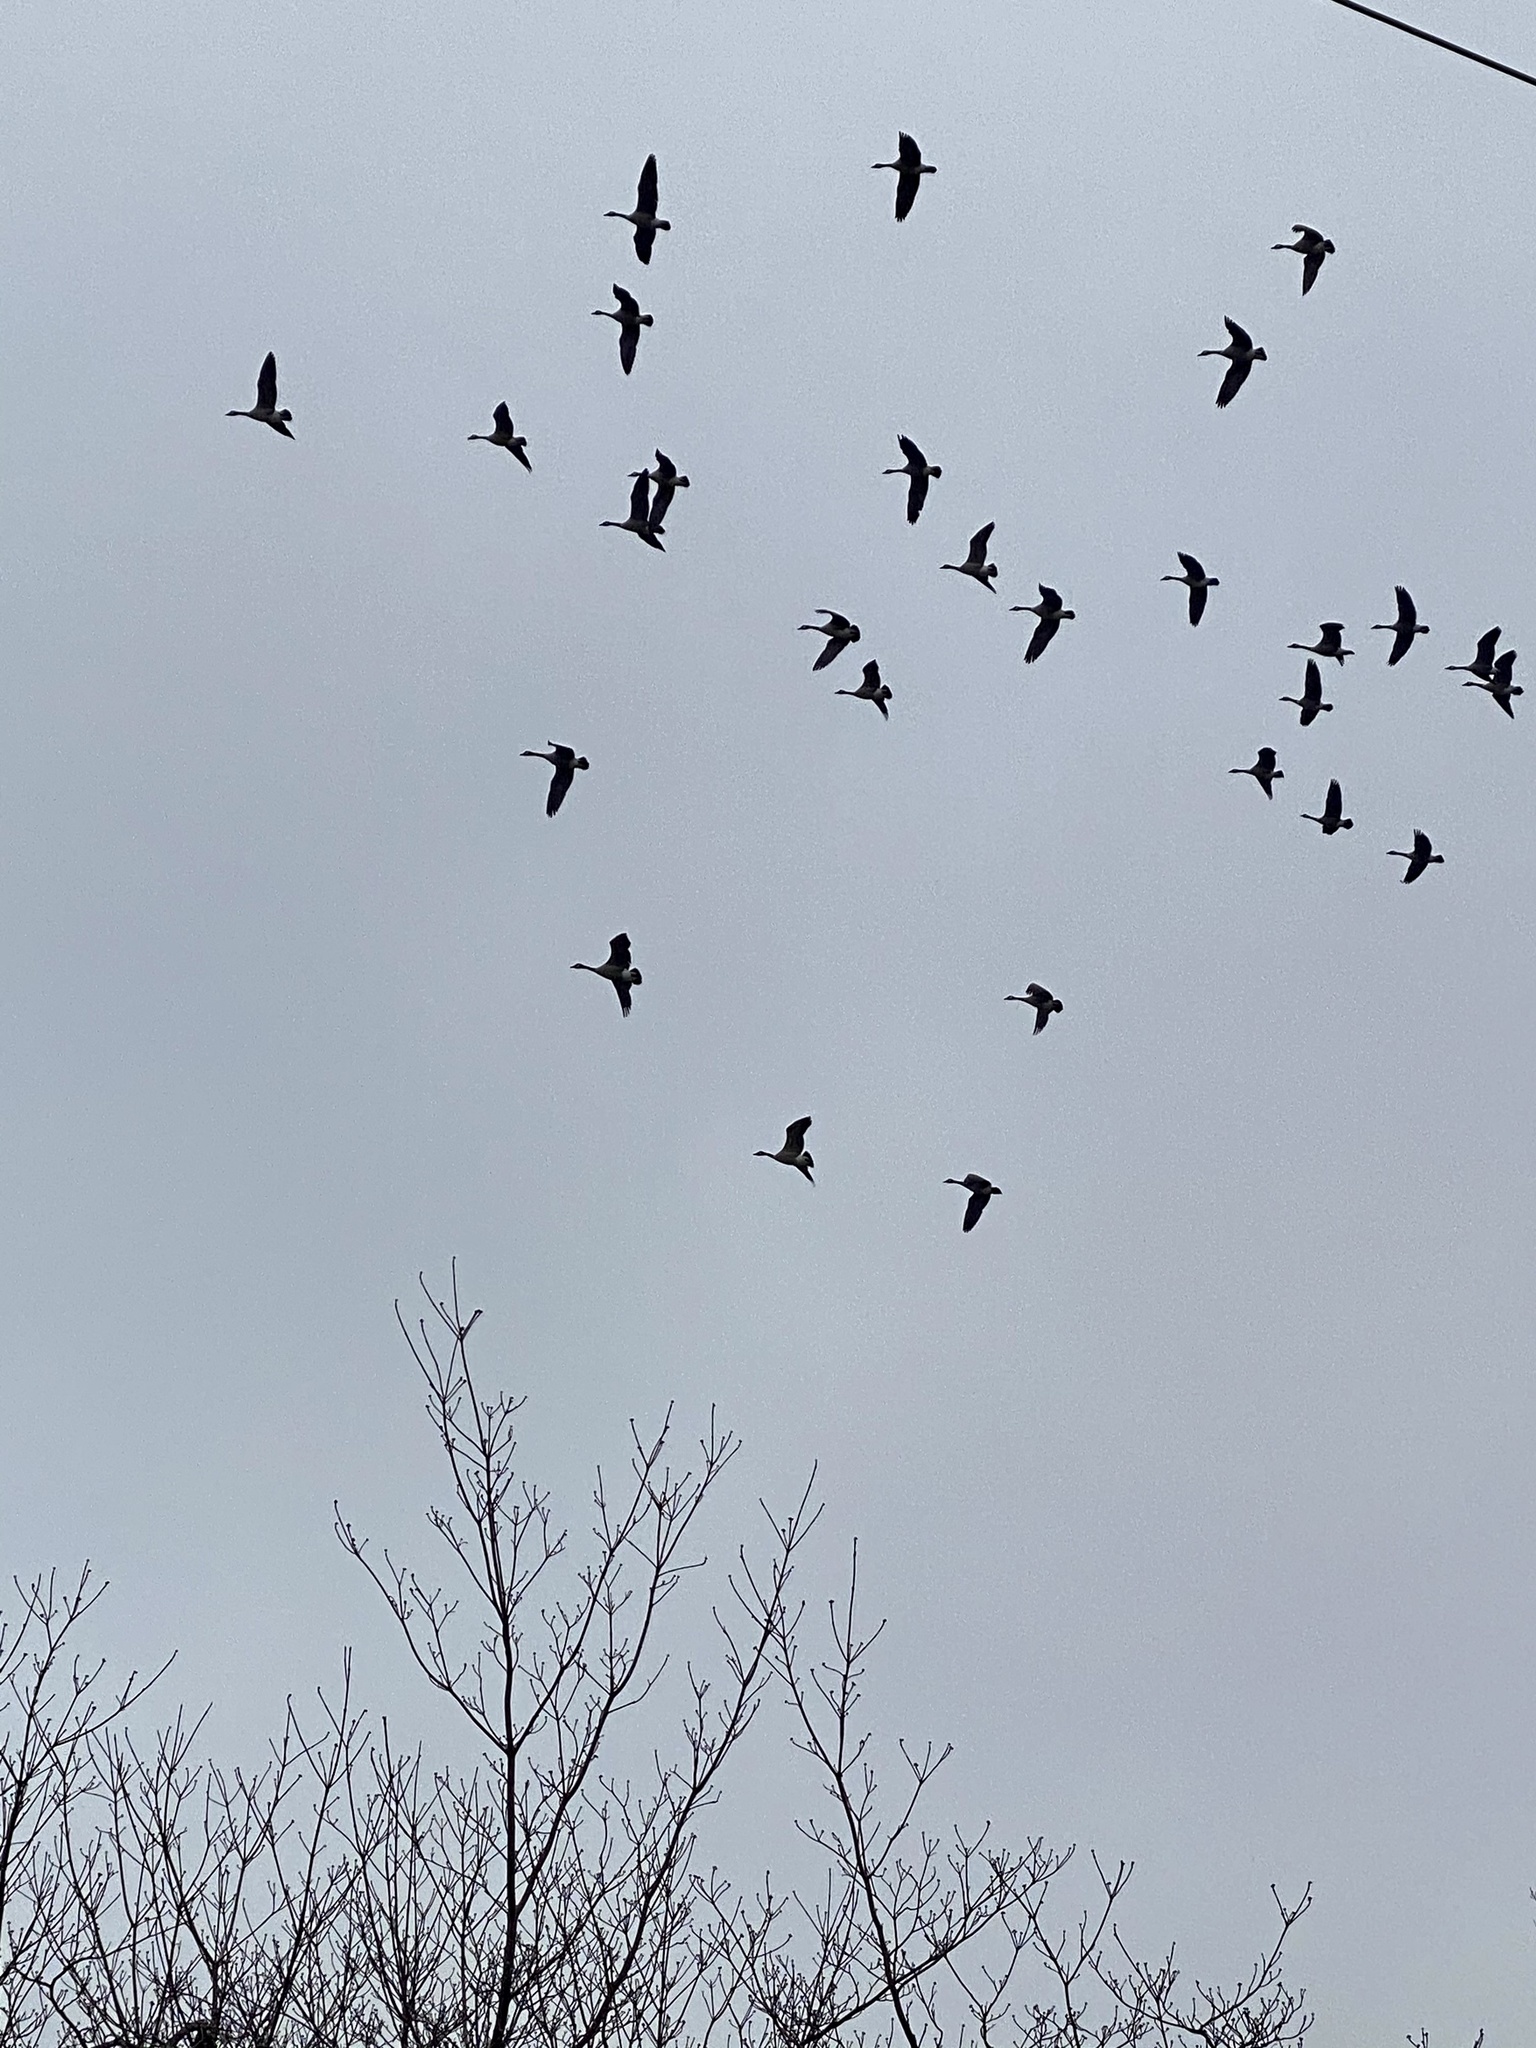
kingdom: Animalia
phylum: Chordata
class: Aves
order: Anseriformes
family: Anatidae
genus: Branta
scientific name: Branta canadensis
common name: Canada goose
